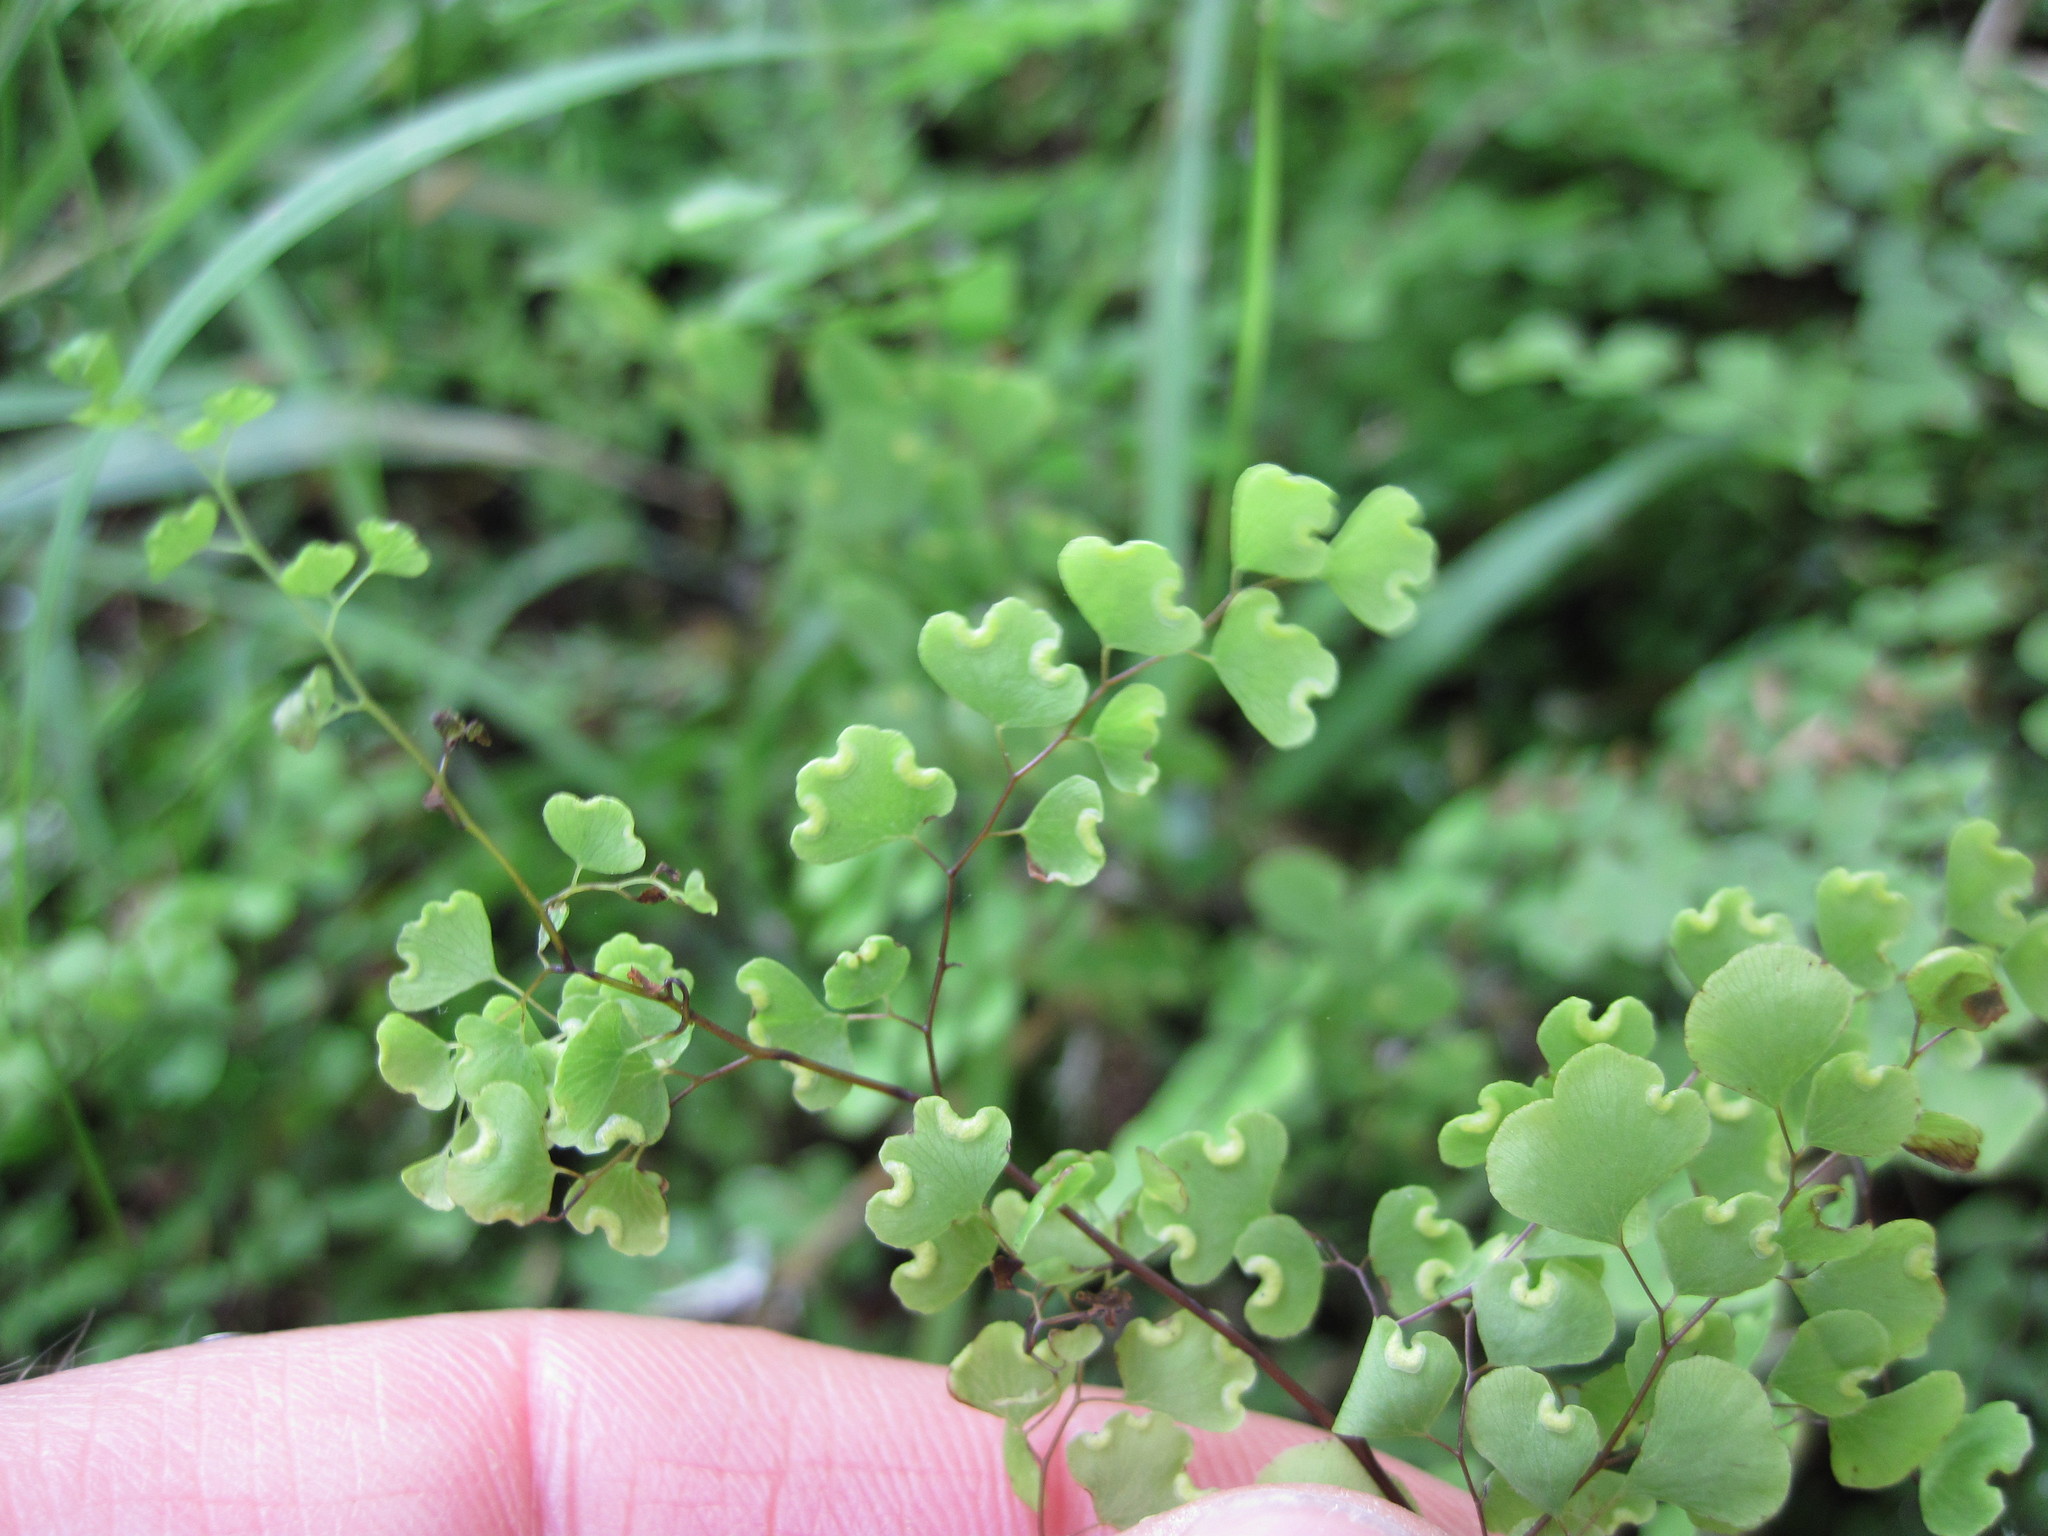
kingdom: Plantae
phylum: Tracheophyta
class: Polypodiopsida
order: Polypodiales
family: Pteridaceae
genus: Adiantum
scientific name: Adiantum aethiopicum
